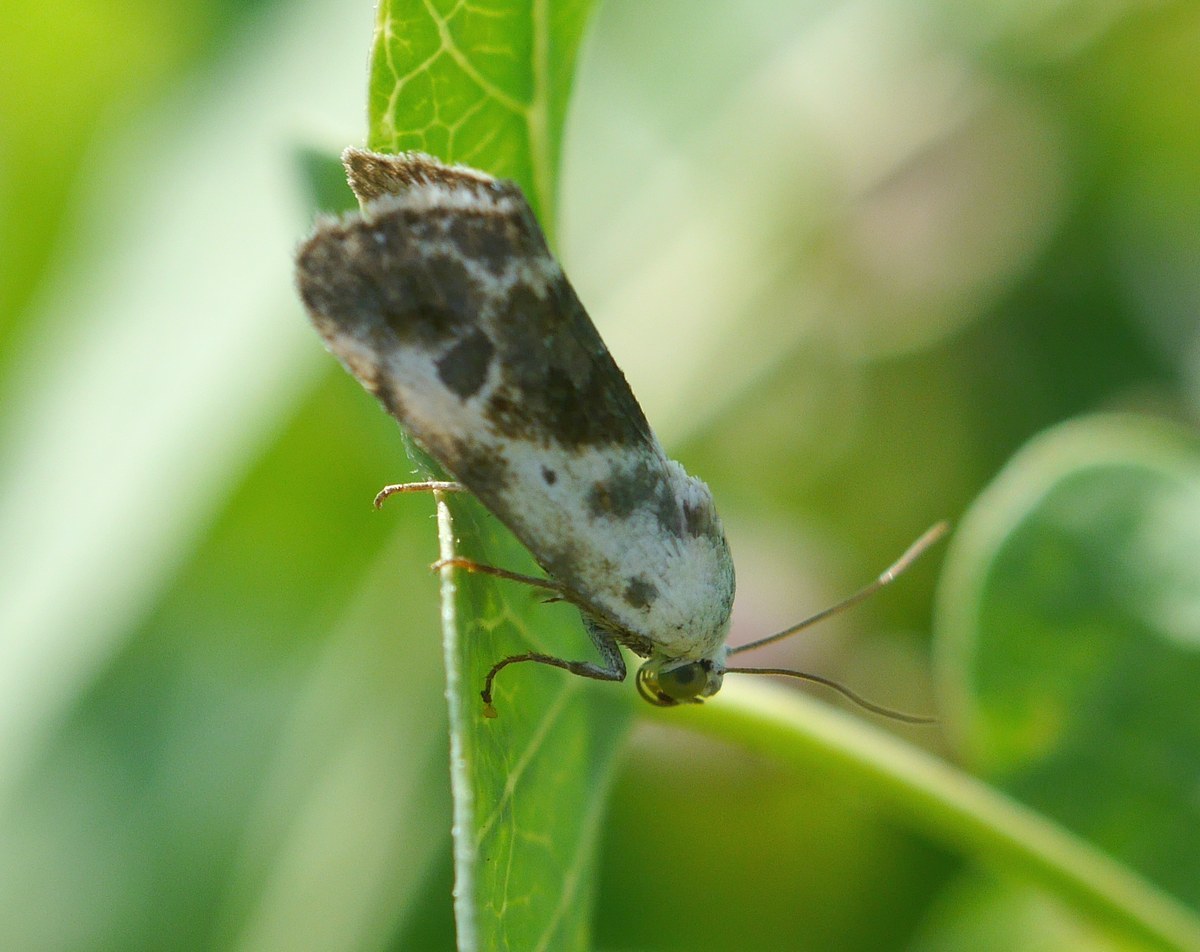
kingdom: Animalia
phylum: Arthropoda
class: Insecta
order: Lepidoptera
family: Noctuidae
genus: Acontia
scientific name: Acontia candefacta
